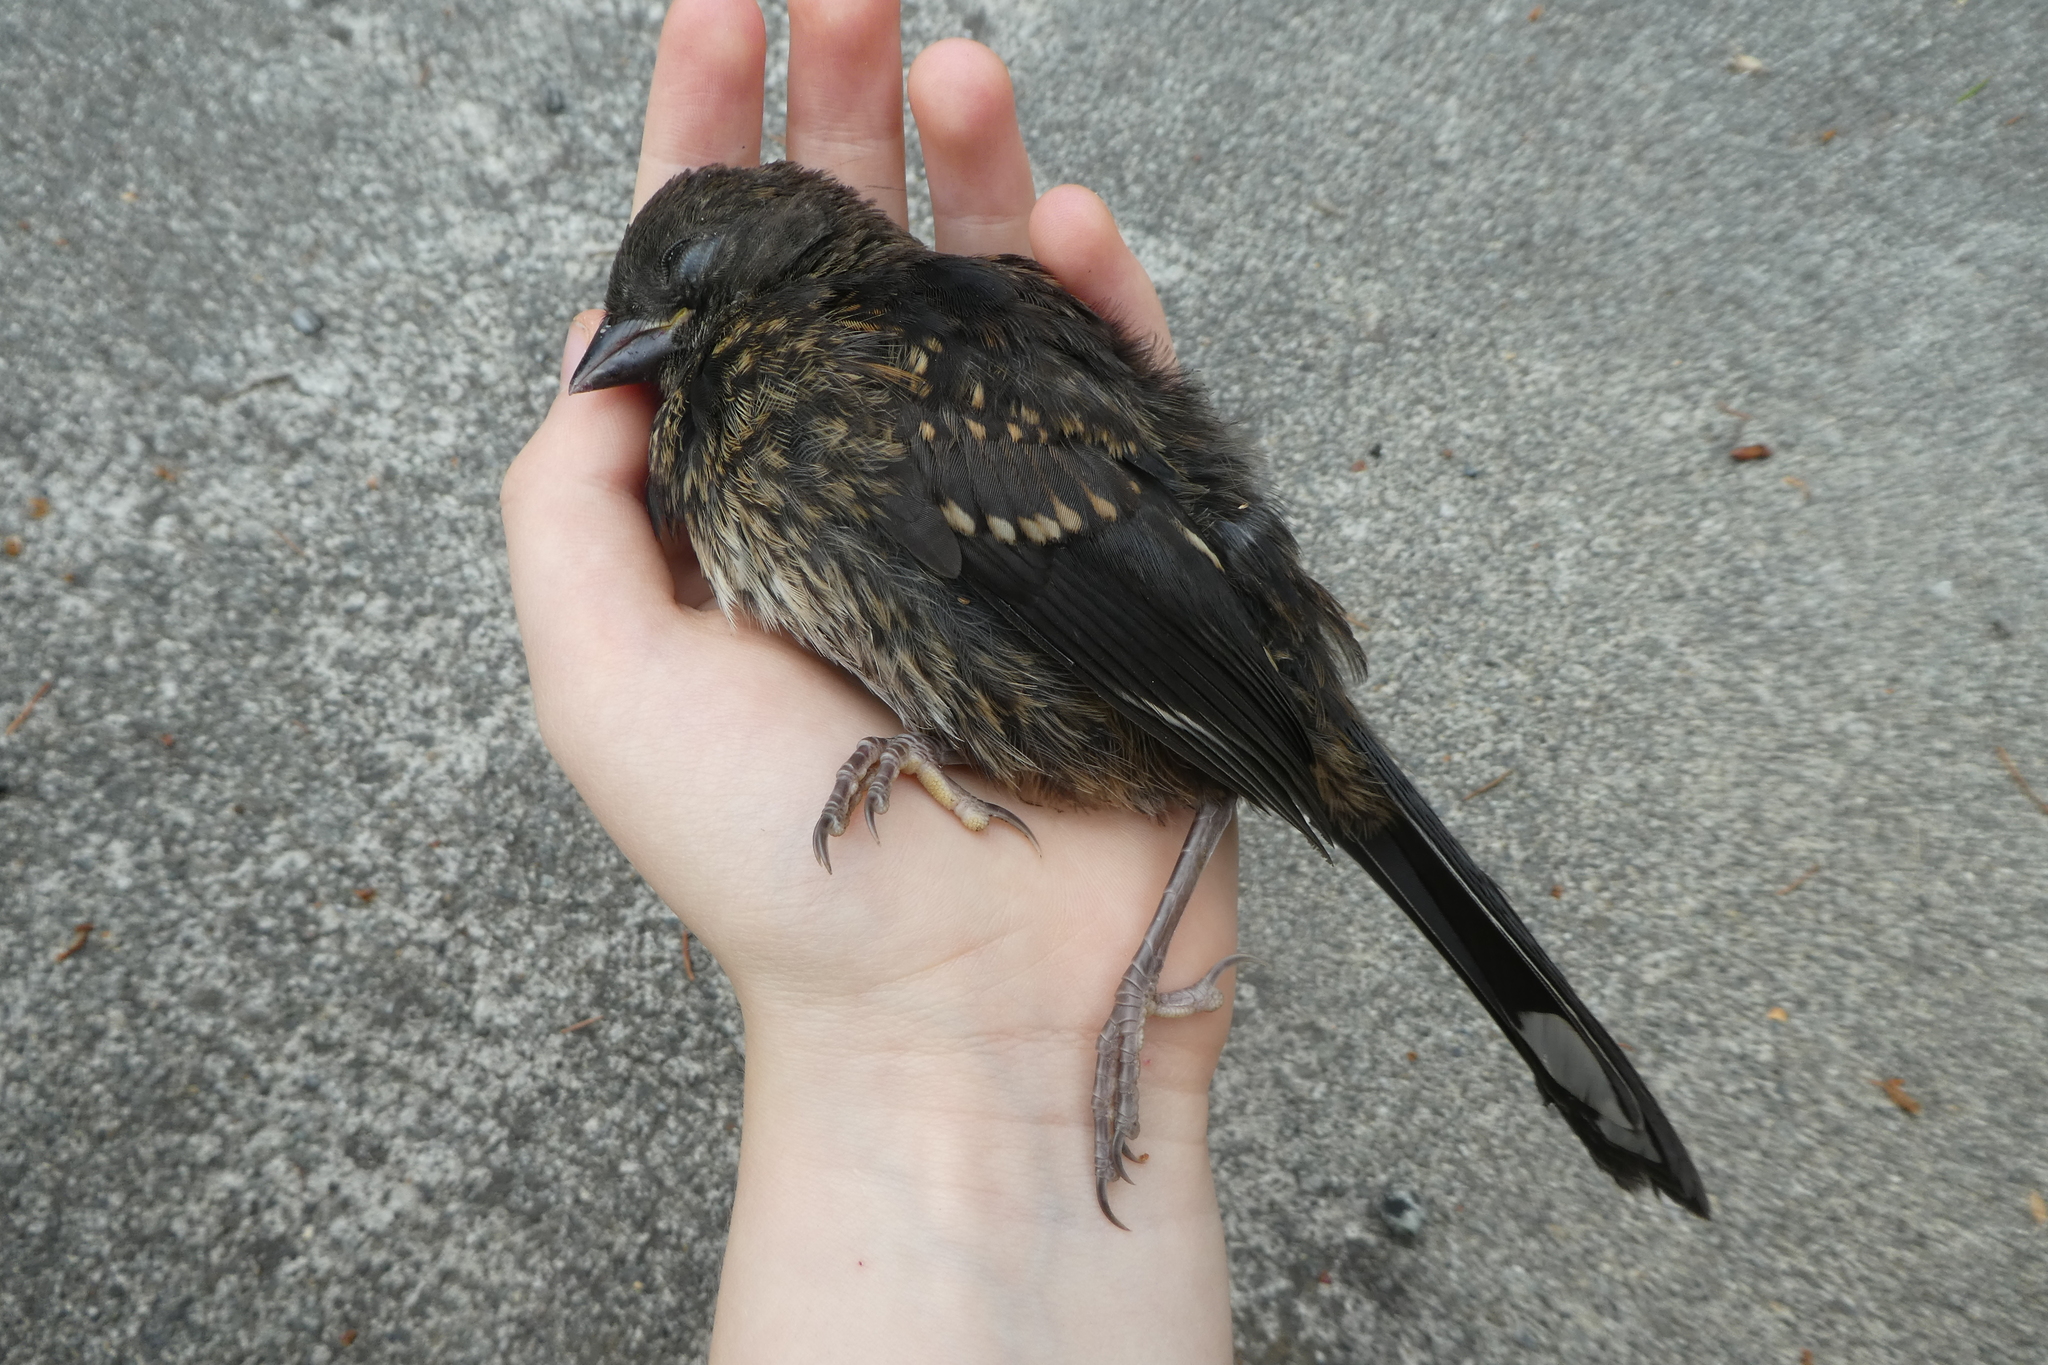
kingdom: Animalia
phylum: Chordata
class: Aves
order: Passeriformes
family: Passerellidae
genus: Pipilo
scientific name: Pipilo maculatus
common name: Spotted towhee
